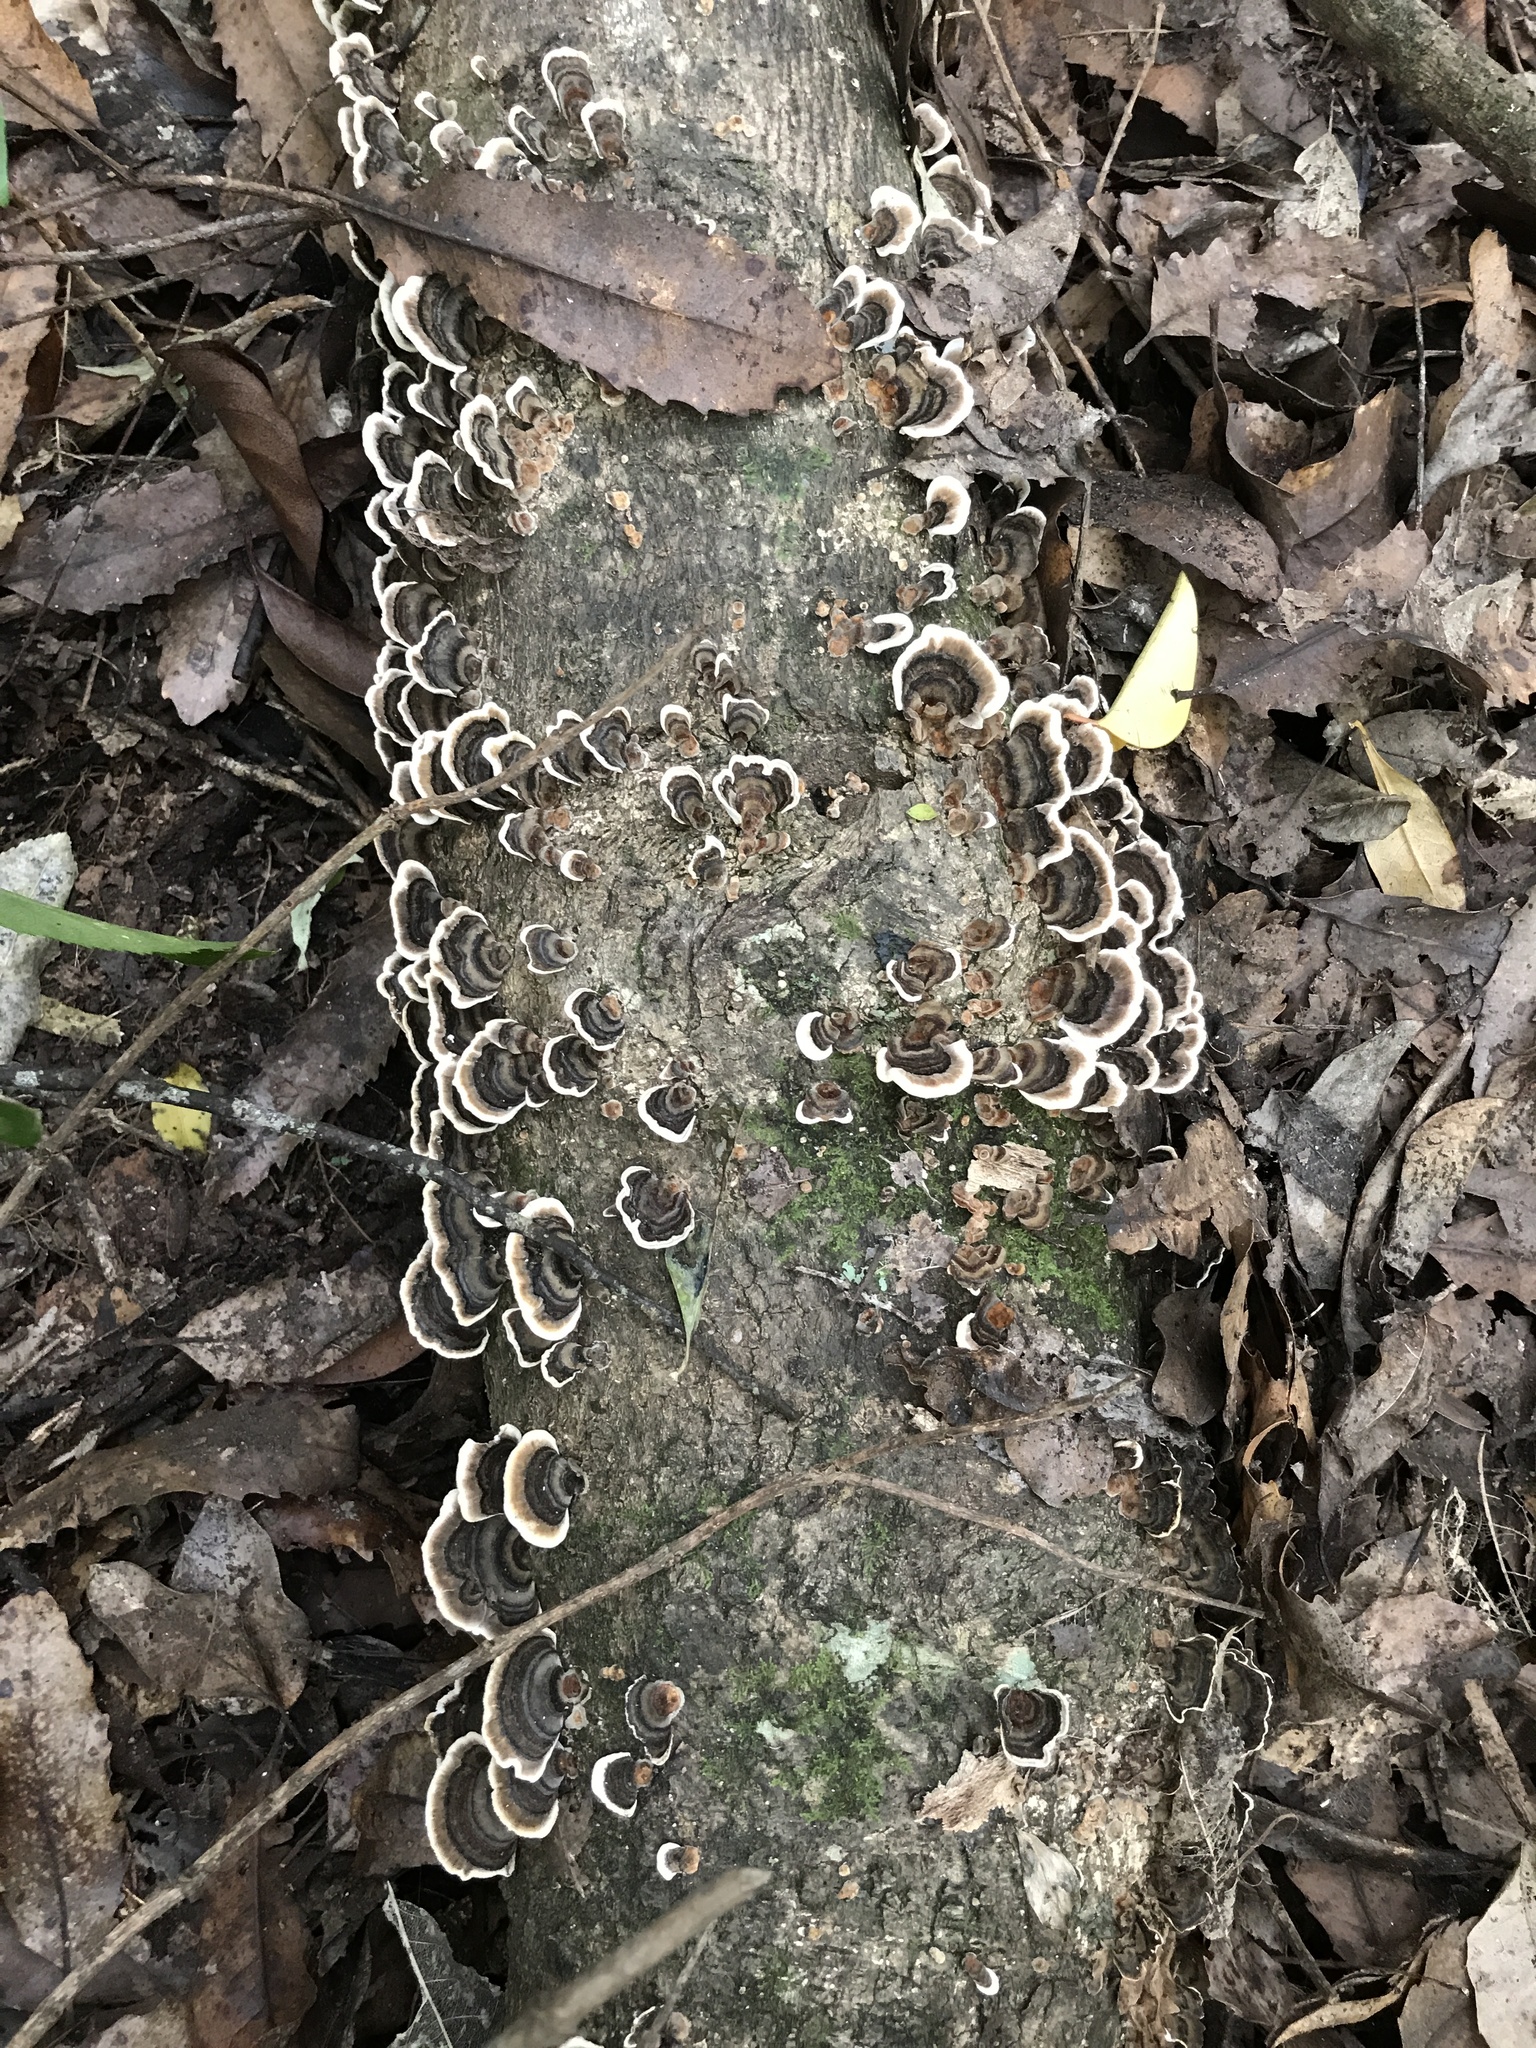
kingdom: Fungi
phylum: Basidiomycota
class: Agaricomycetes
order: Polyporales
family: Polyporaceae
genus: Trametes
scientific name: Trametes versicolor
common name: Turkeytail
